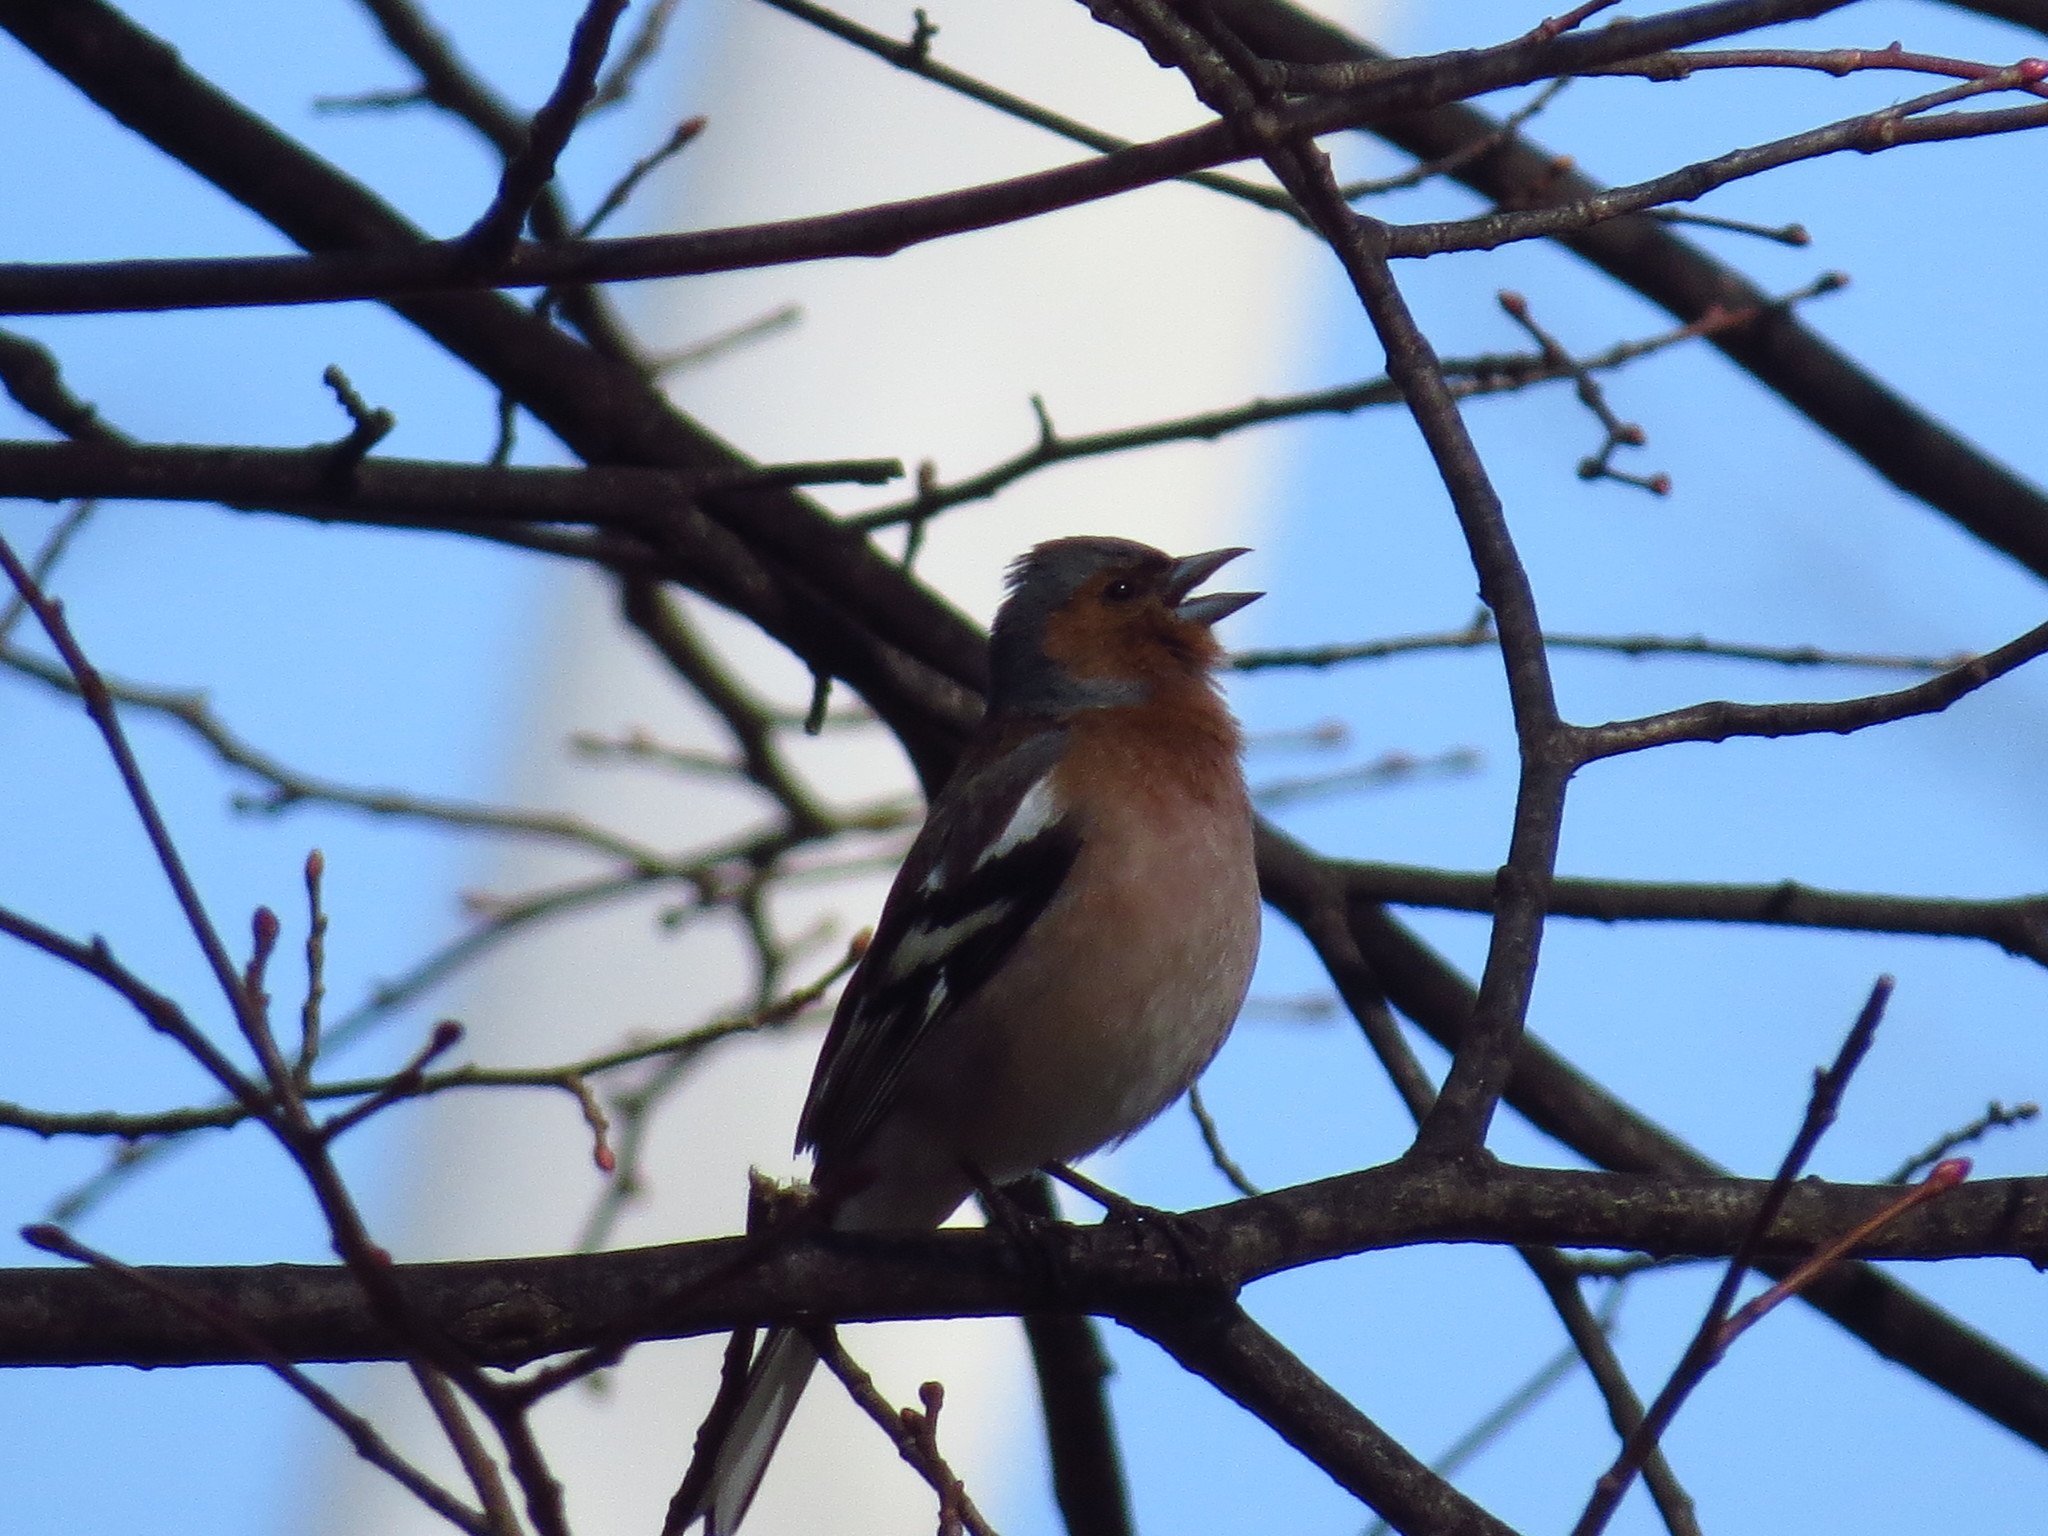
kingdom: Animalia
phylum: Chordata
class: Aves
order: Passeriformes
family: Fringillidae
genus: Fringilla
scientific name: Fringilla coelebs
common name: Common chaffinch
